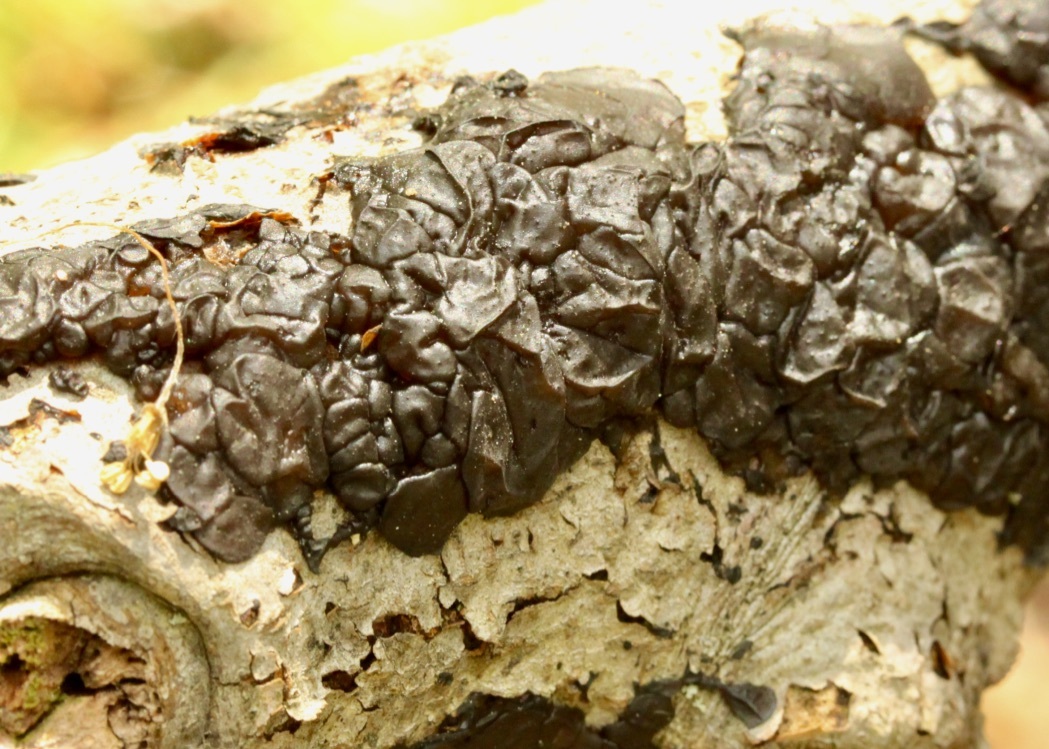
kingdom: Fungi
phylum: Basidiomycota
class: Agaricomycetes
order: Auriculariales
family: Auriculariaceae
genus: Exidia
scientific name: Exidia nigricans
